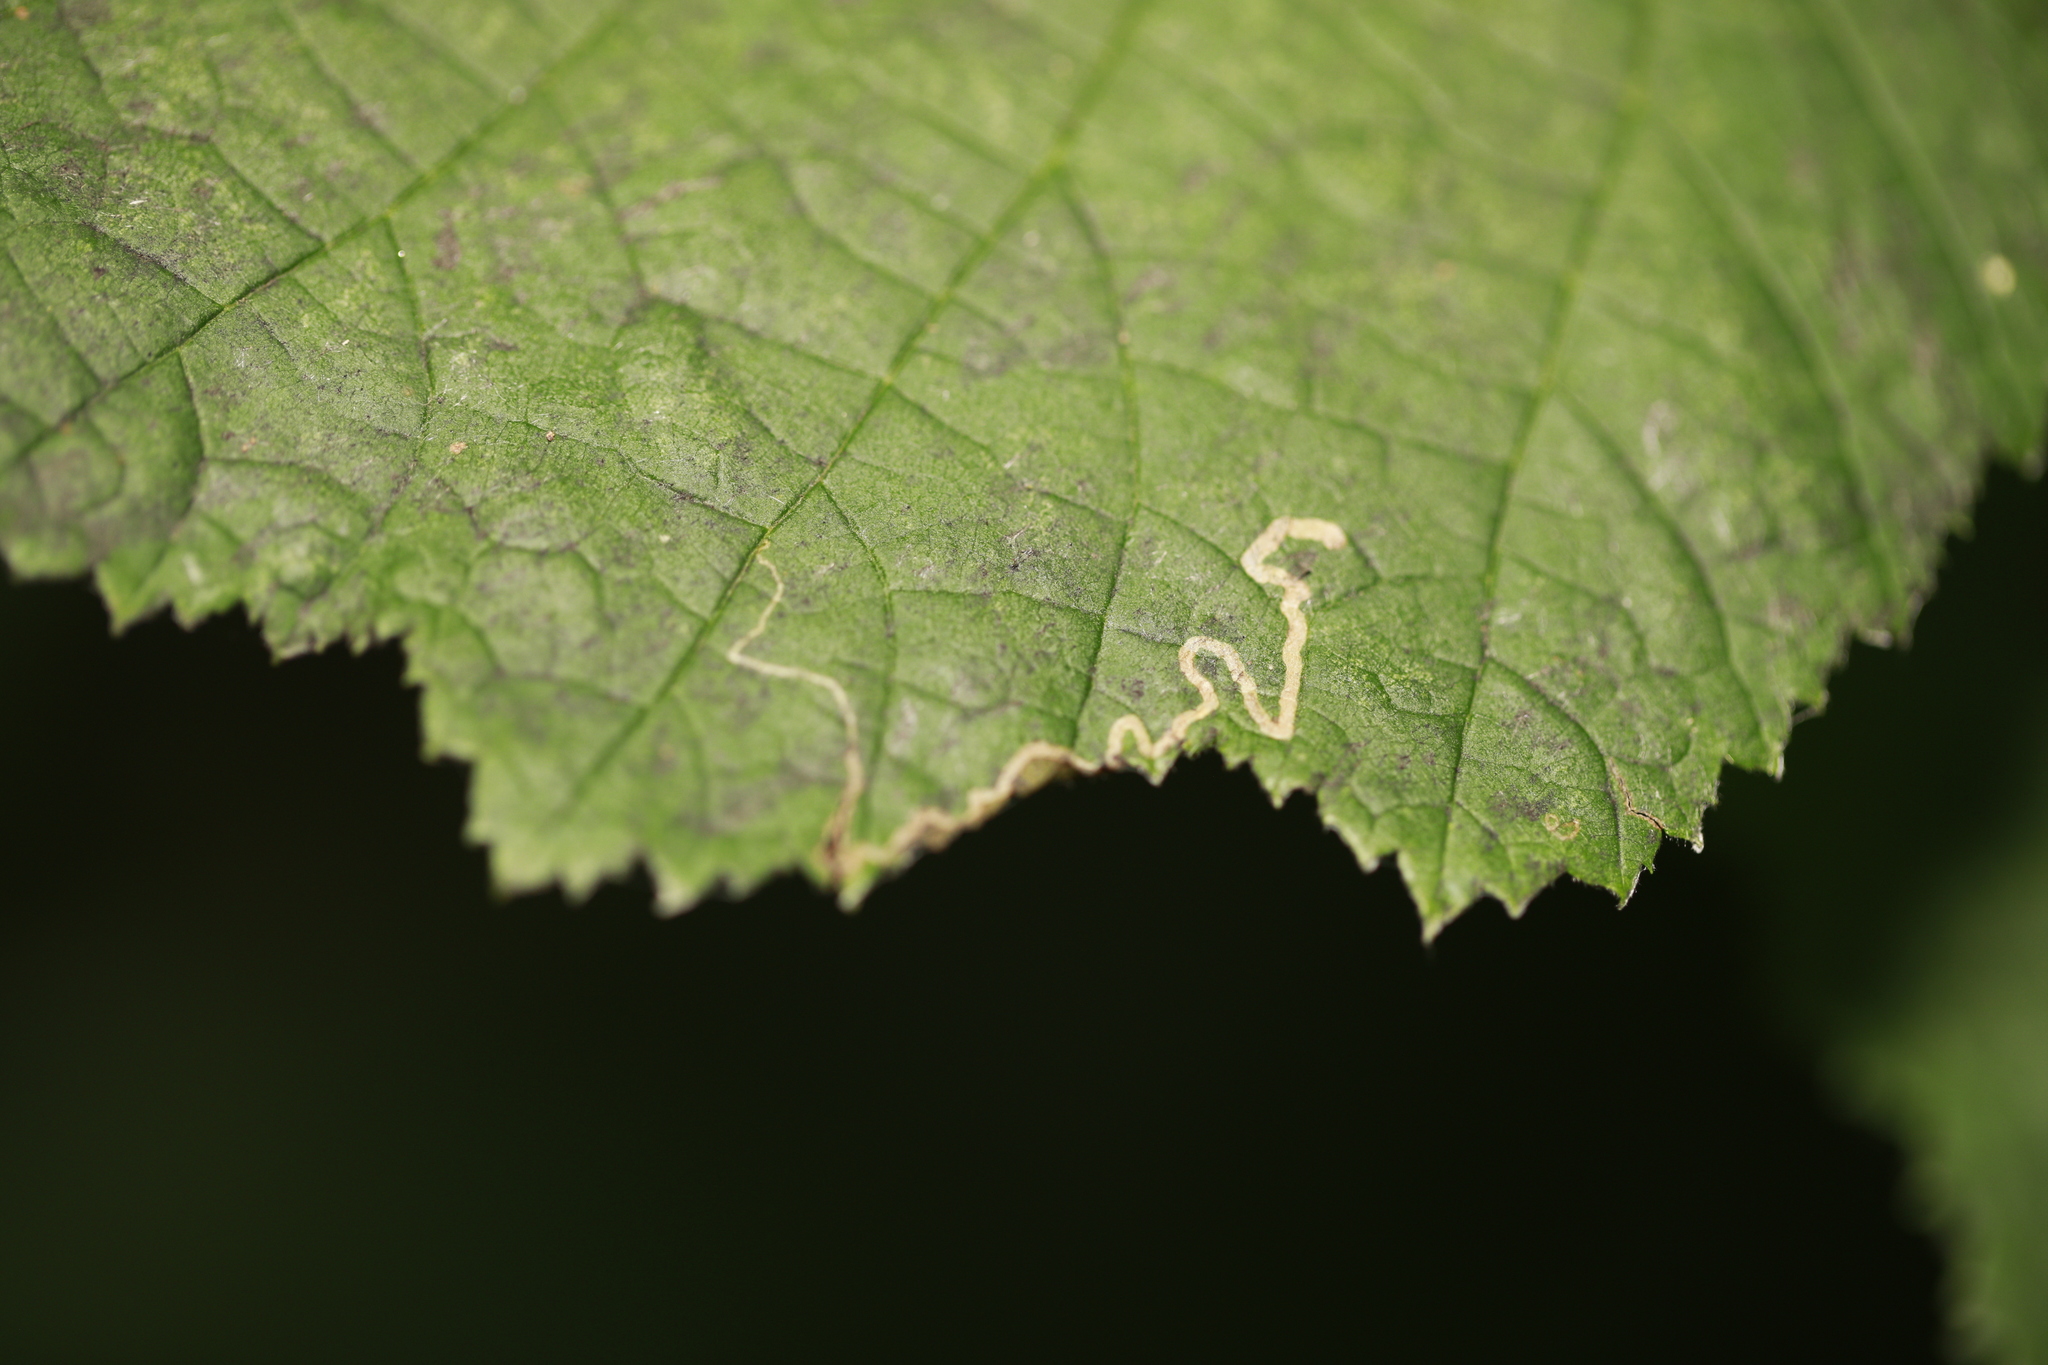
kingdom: Animalia
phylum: Arthropoda
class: Insecta
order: Lepidoptera
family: Nepticulidae
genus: Stigmella
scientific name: Stigmella microtheriella
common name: Nut-tree pigmy
